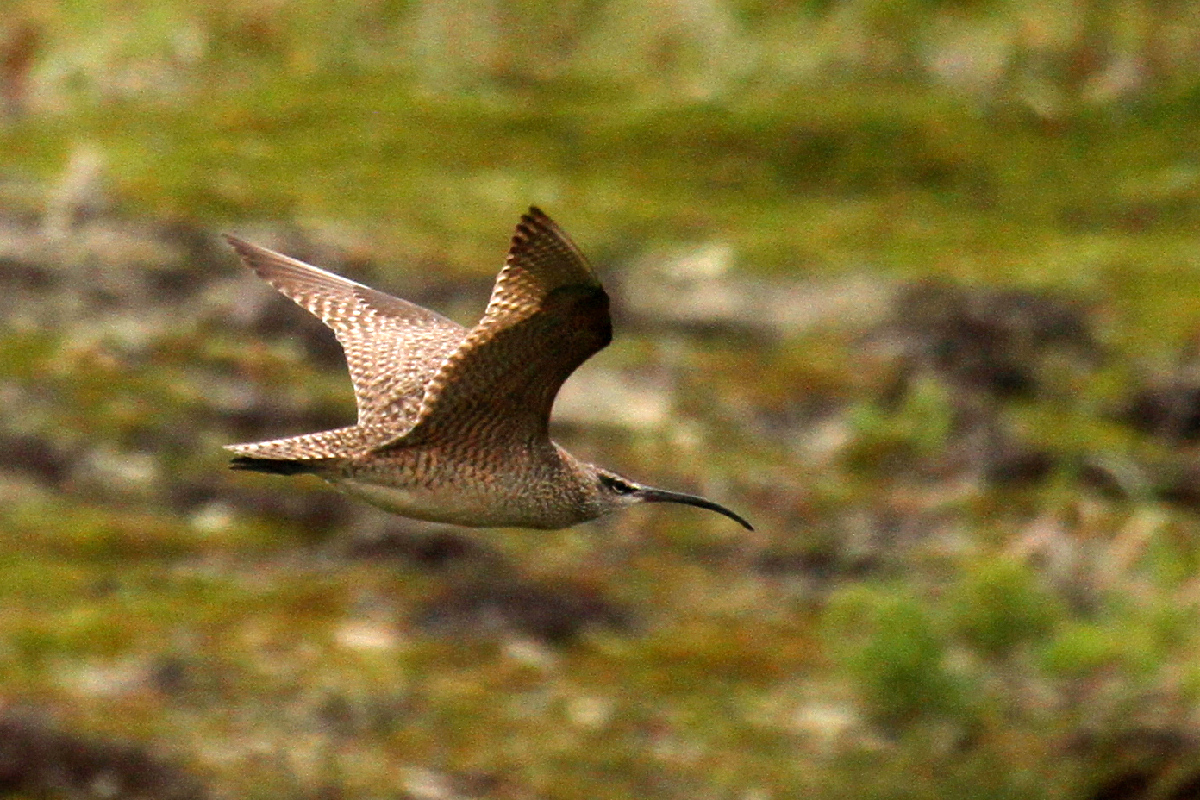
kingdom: Animalia
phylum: Chordata
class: Aves
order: Charadriiformes
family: Scolopacidae
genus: Numenius
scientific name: Numenius phaeopus
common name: Whimbrel
